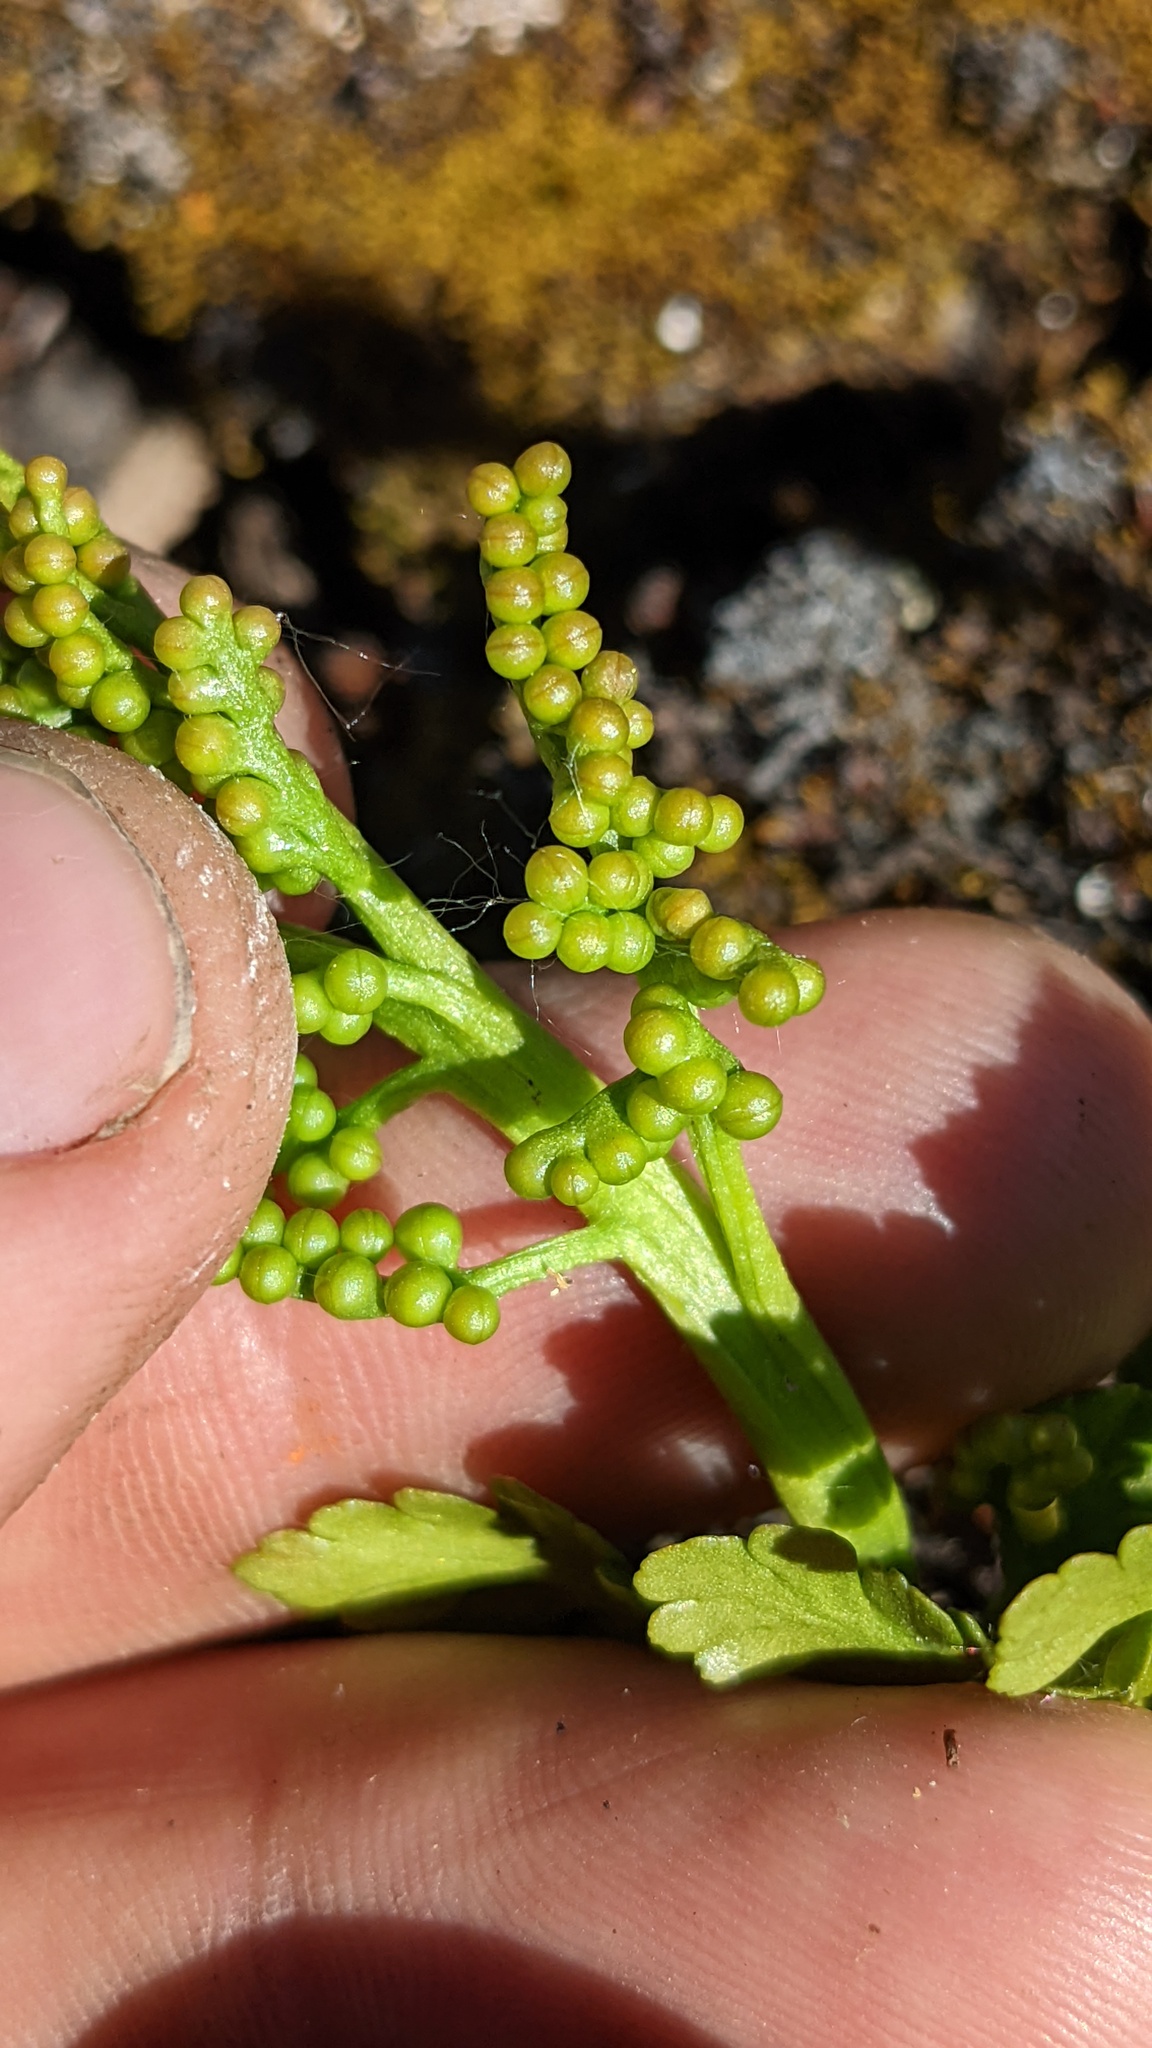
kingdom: Plantae
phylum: Tracheophyta
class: Polypodiopsida
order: Ophioglossales
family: Ophioglossaceae
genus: Botrychium
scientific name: Botrychium pinnatum
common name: Northwestern moonwort
